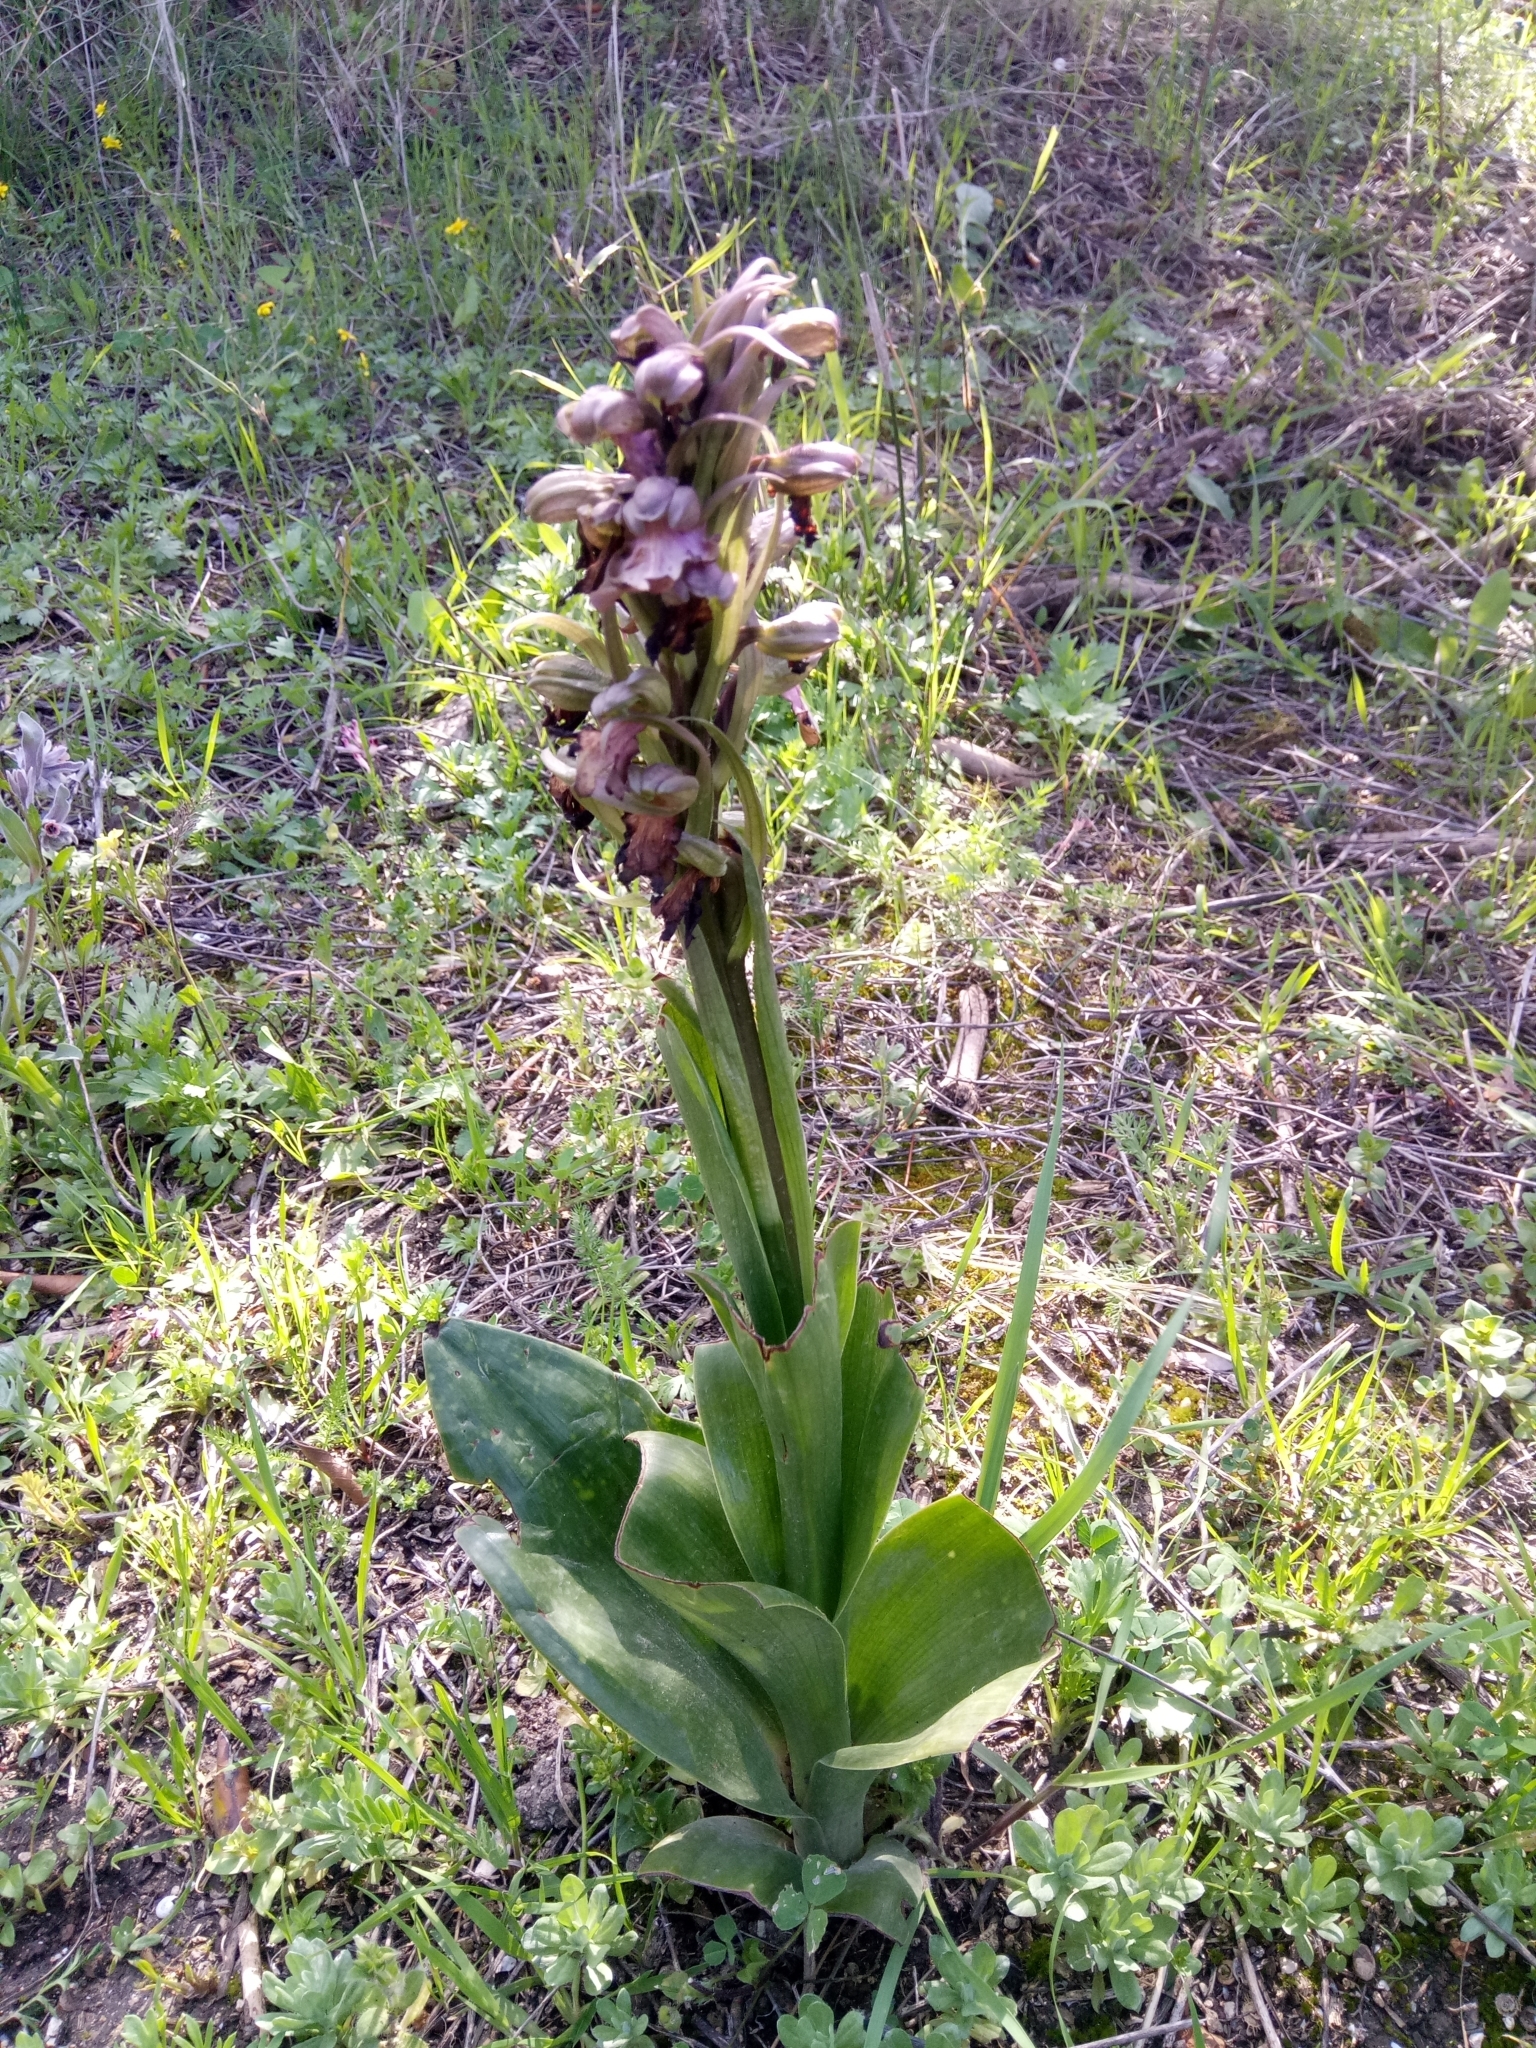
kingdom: Plantae
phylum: Tracheophyta
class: Liliopsida
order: Asparagales
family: Orchidaceae
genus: Himantoglossum
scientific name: Himantoglossum robertianum
